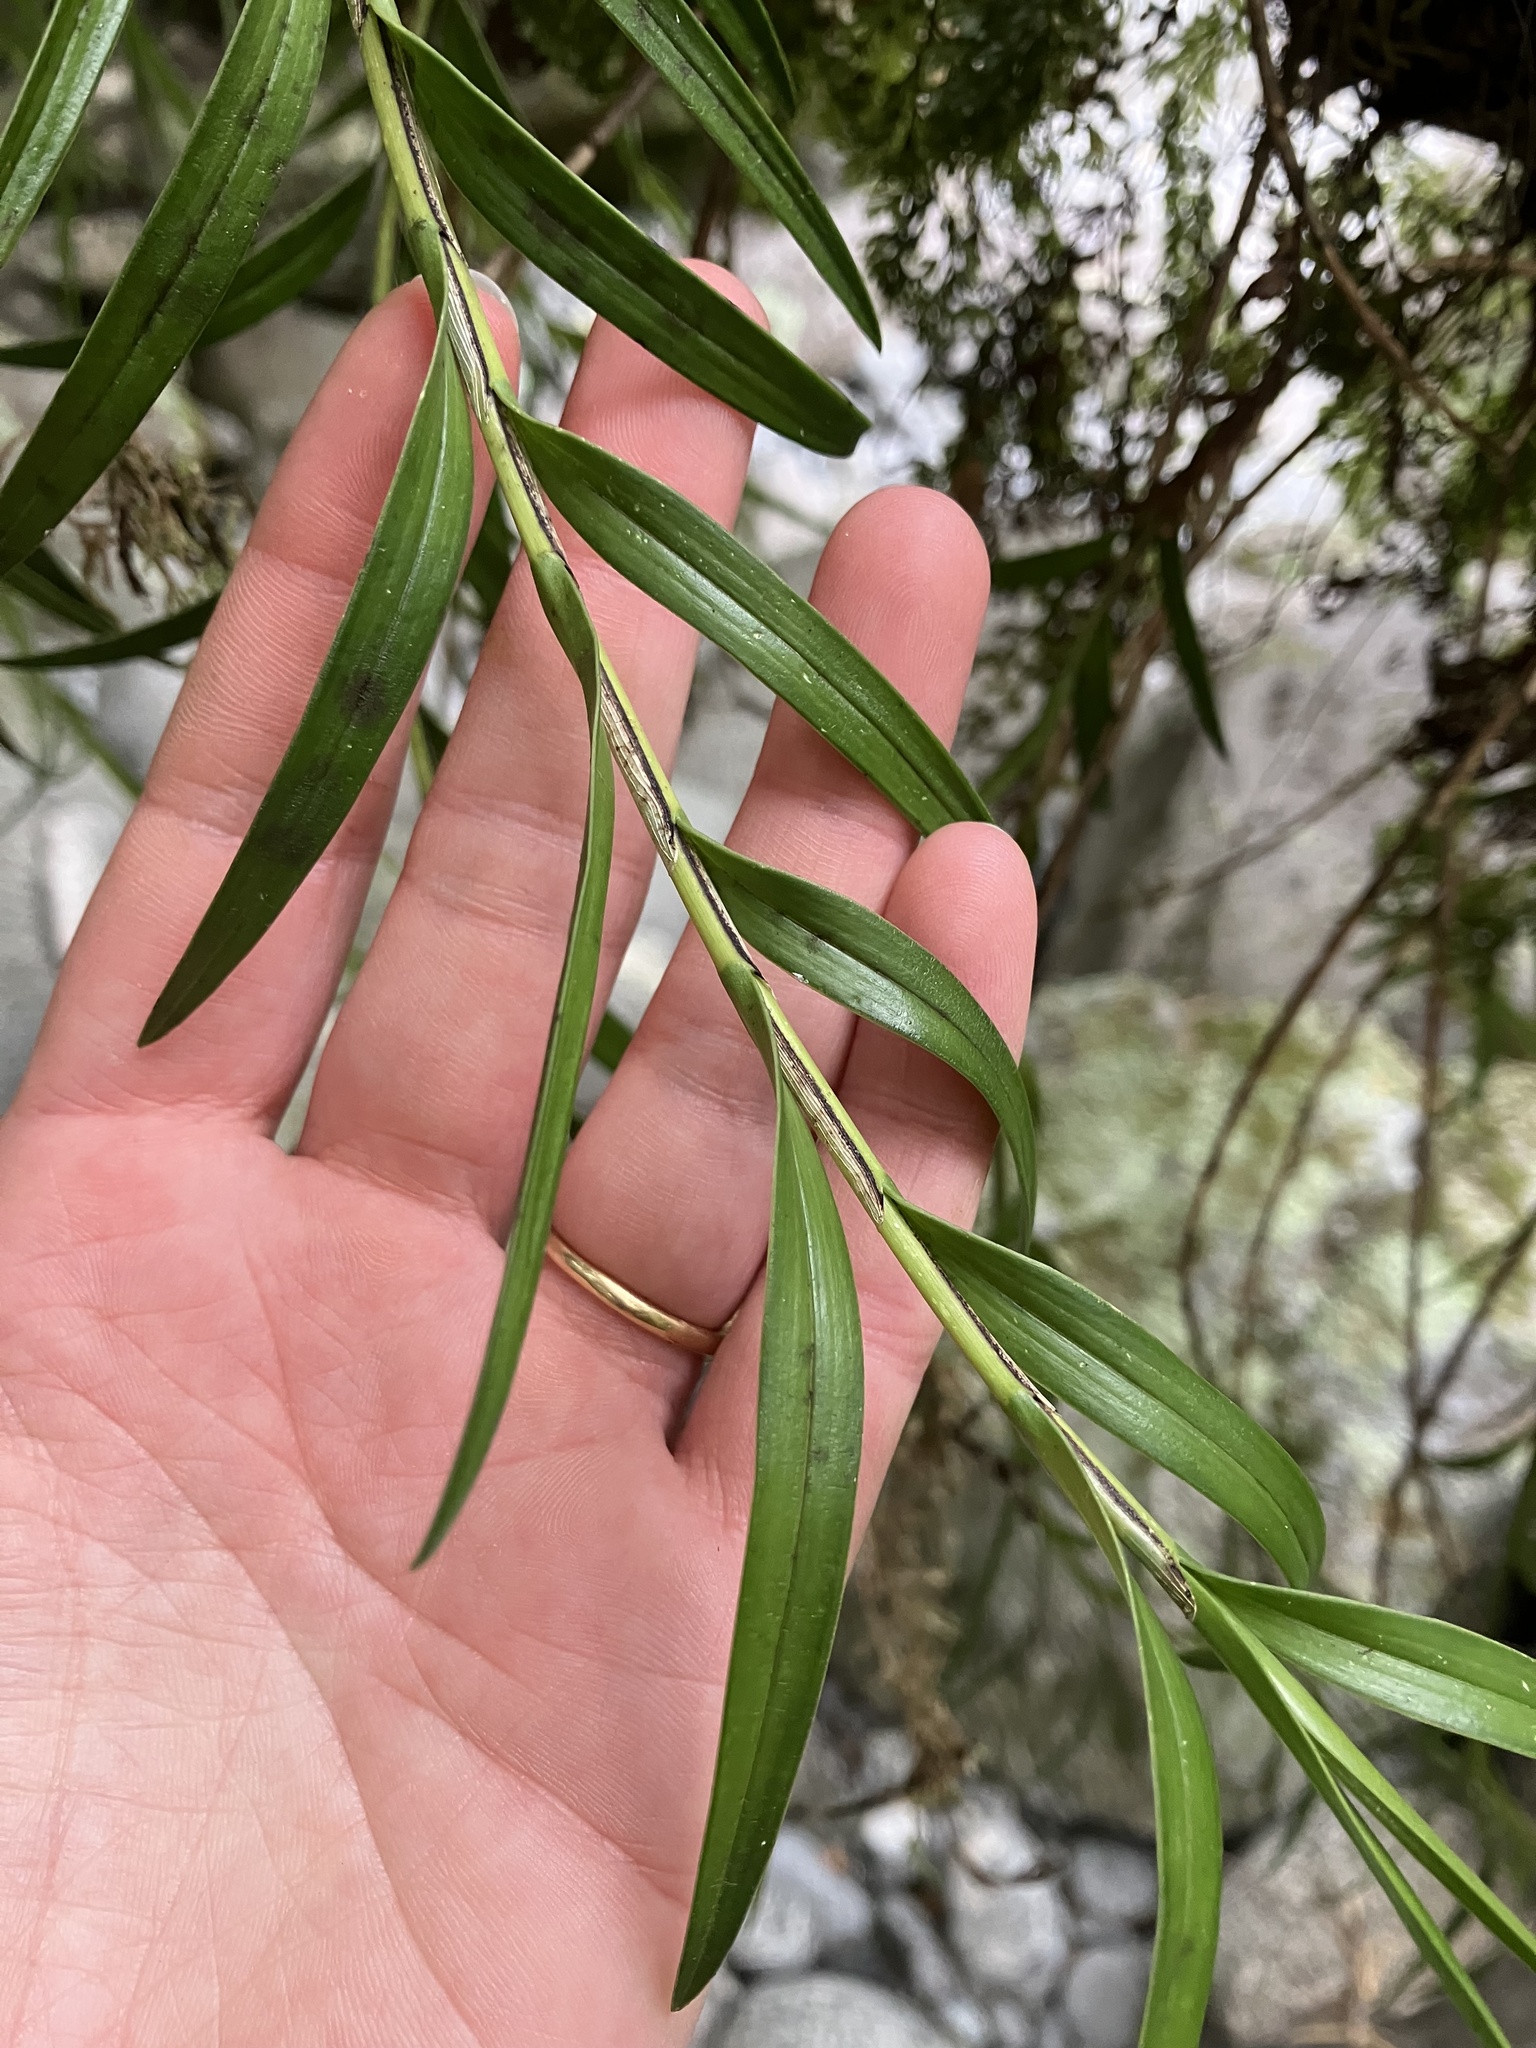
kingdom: Plantae
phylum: Tracheophyta
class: Liliopsida
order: Asparagales
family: Orchidaceae
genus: Earina
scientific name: Earina autumnalis
